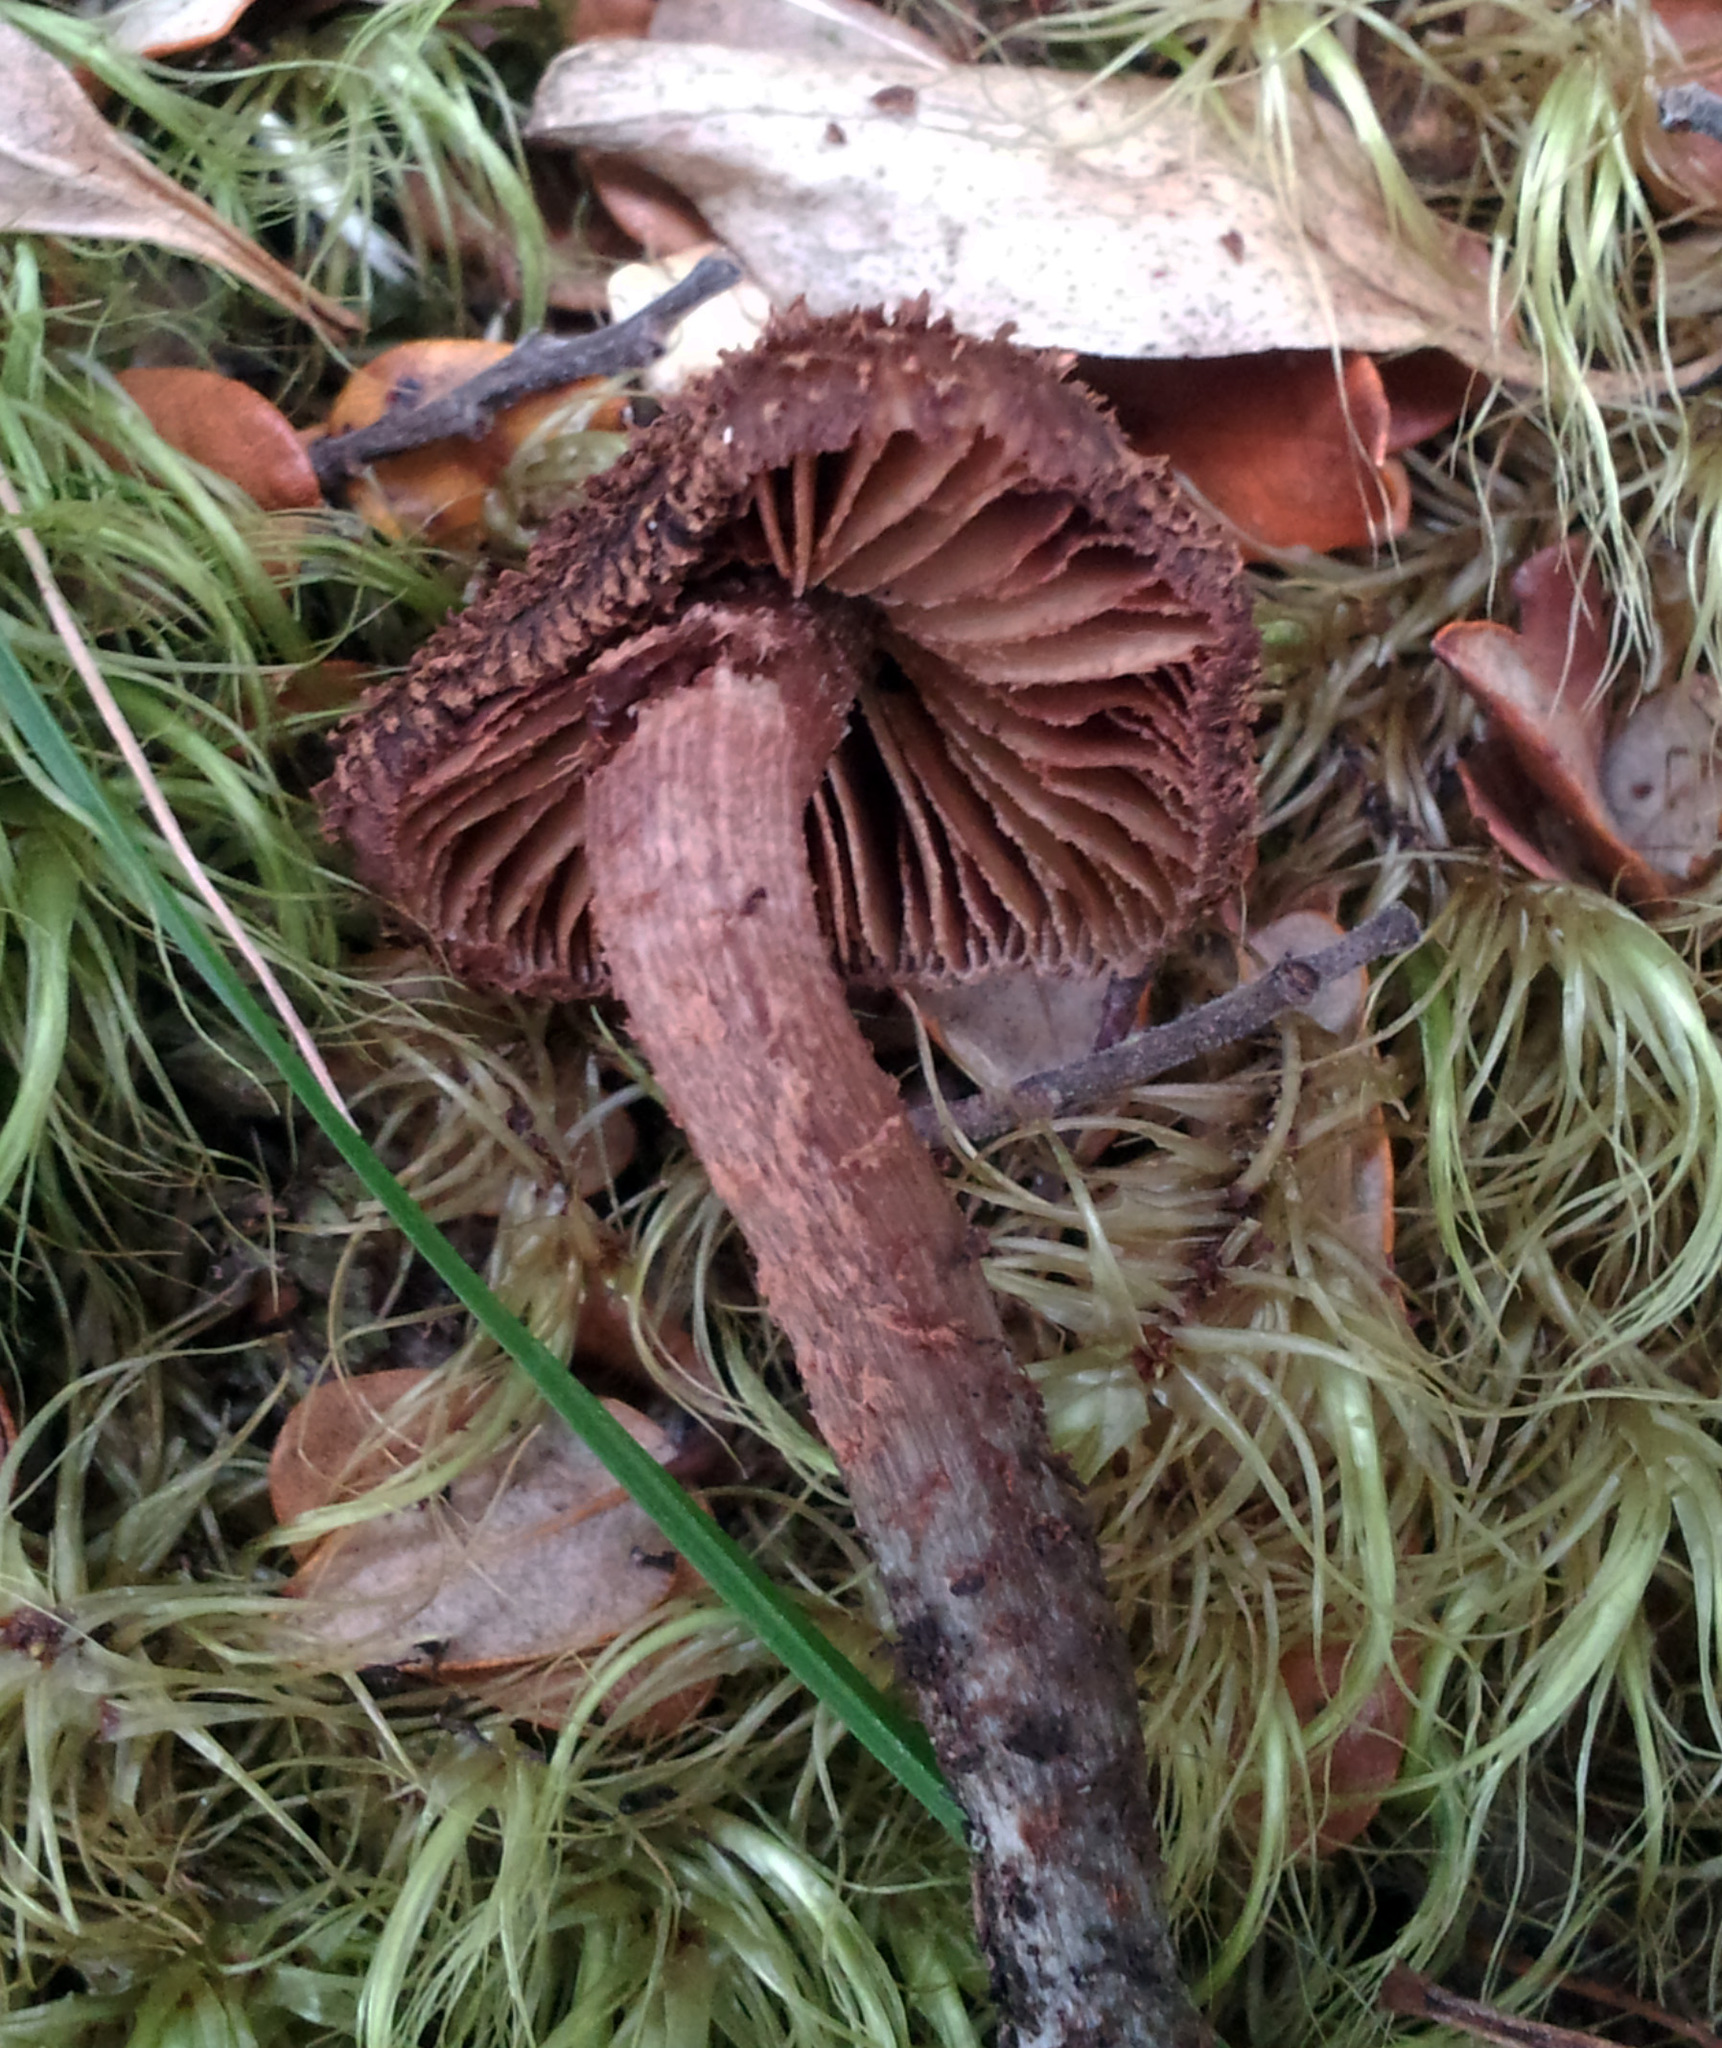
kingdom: Fungi
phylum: Basidiomycota
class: Agaricomycetes
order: Agaricales
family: Inocybaceae
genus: Inosperma
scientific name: Inosperma calamistratoides
